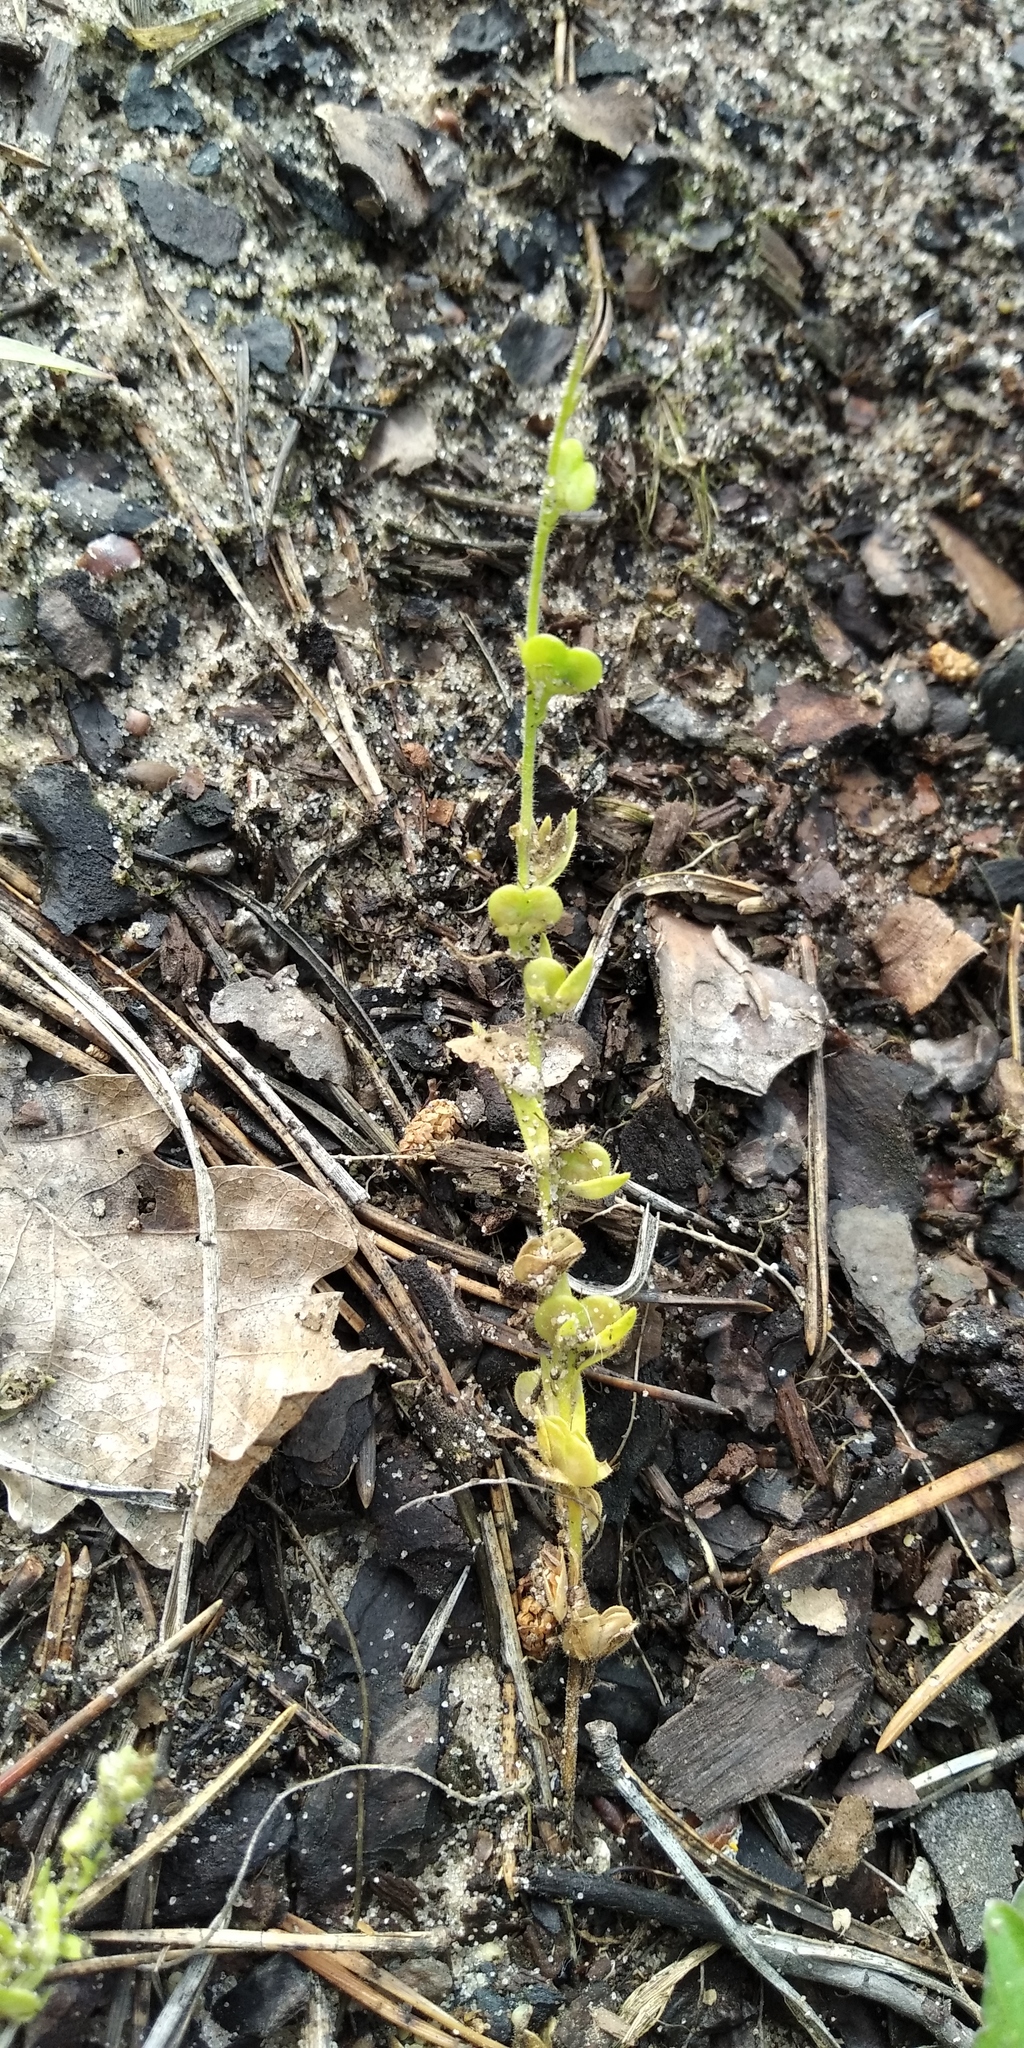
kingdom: Plantae
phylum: Tracheophyta
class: Magnoliopsida
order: Lamiales
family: Plantaginaceae
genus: Veronica
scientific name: Veronica dillenii
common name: Dillenius' speedwell
